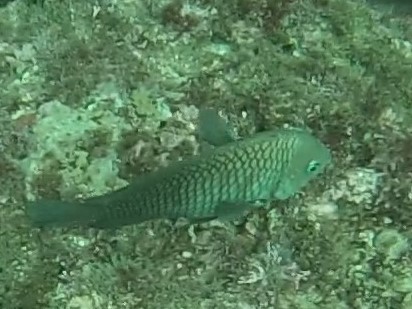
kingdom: Animalia
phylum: Chordata
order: Perciformes
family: Pomacentridae
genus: Stegastes
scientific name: Stegastes acapulcoensis
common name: Acapulco damselfish
